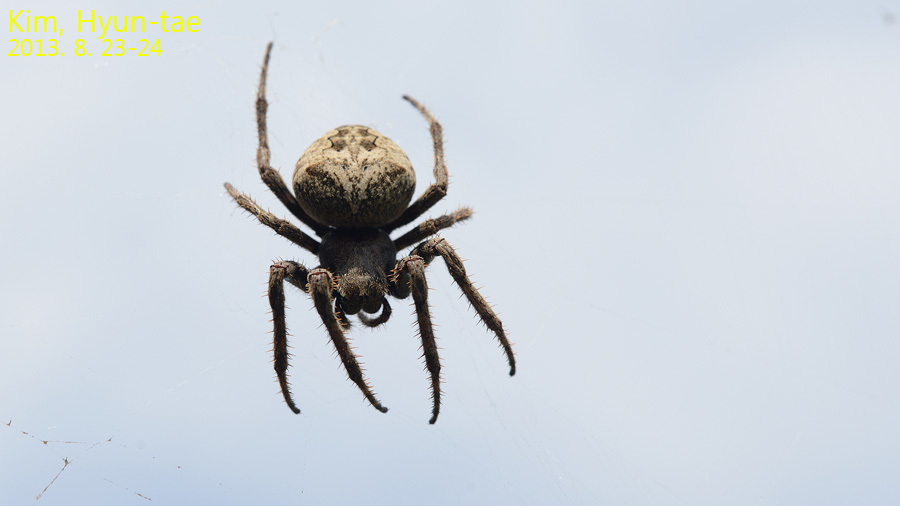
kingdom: Animalia
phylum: Arthropoda
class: Arachnida
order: Araneae
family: Araneidae
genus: Araneus
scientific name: Araneus ventricosus
